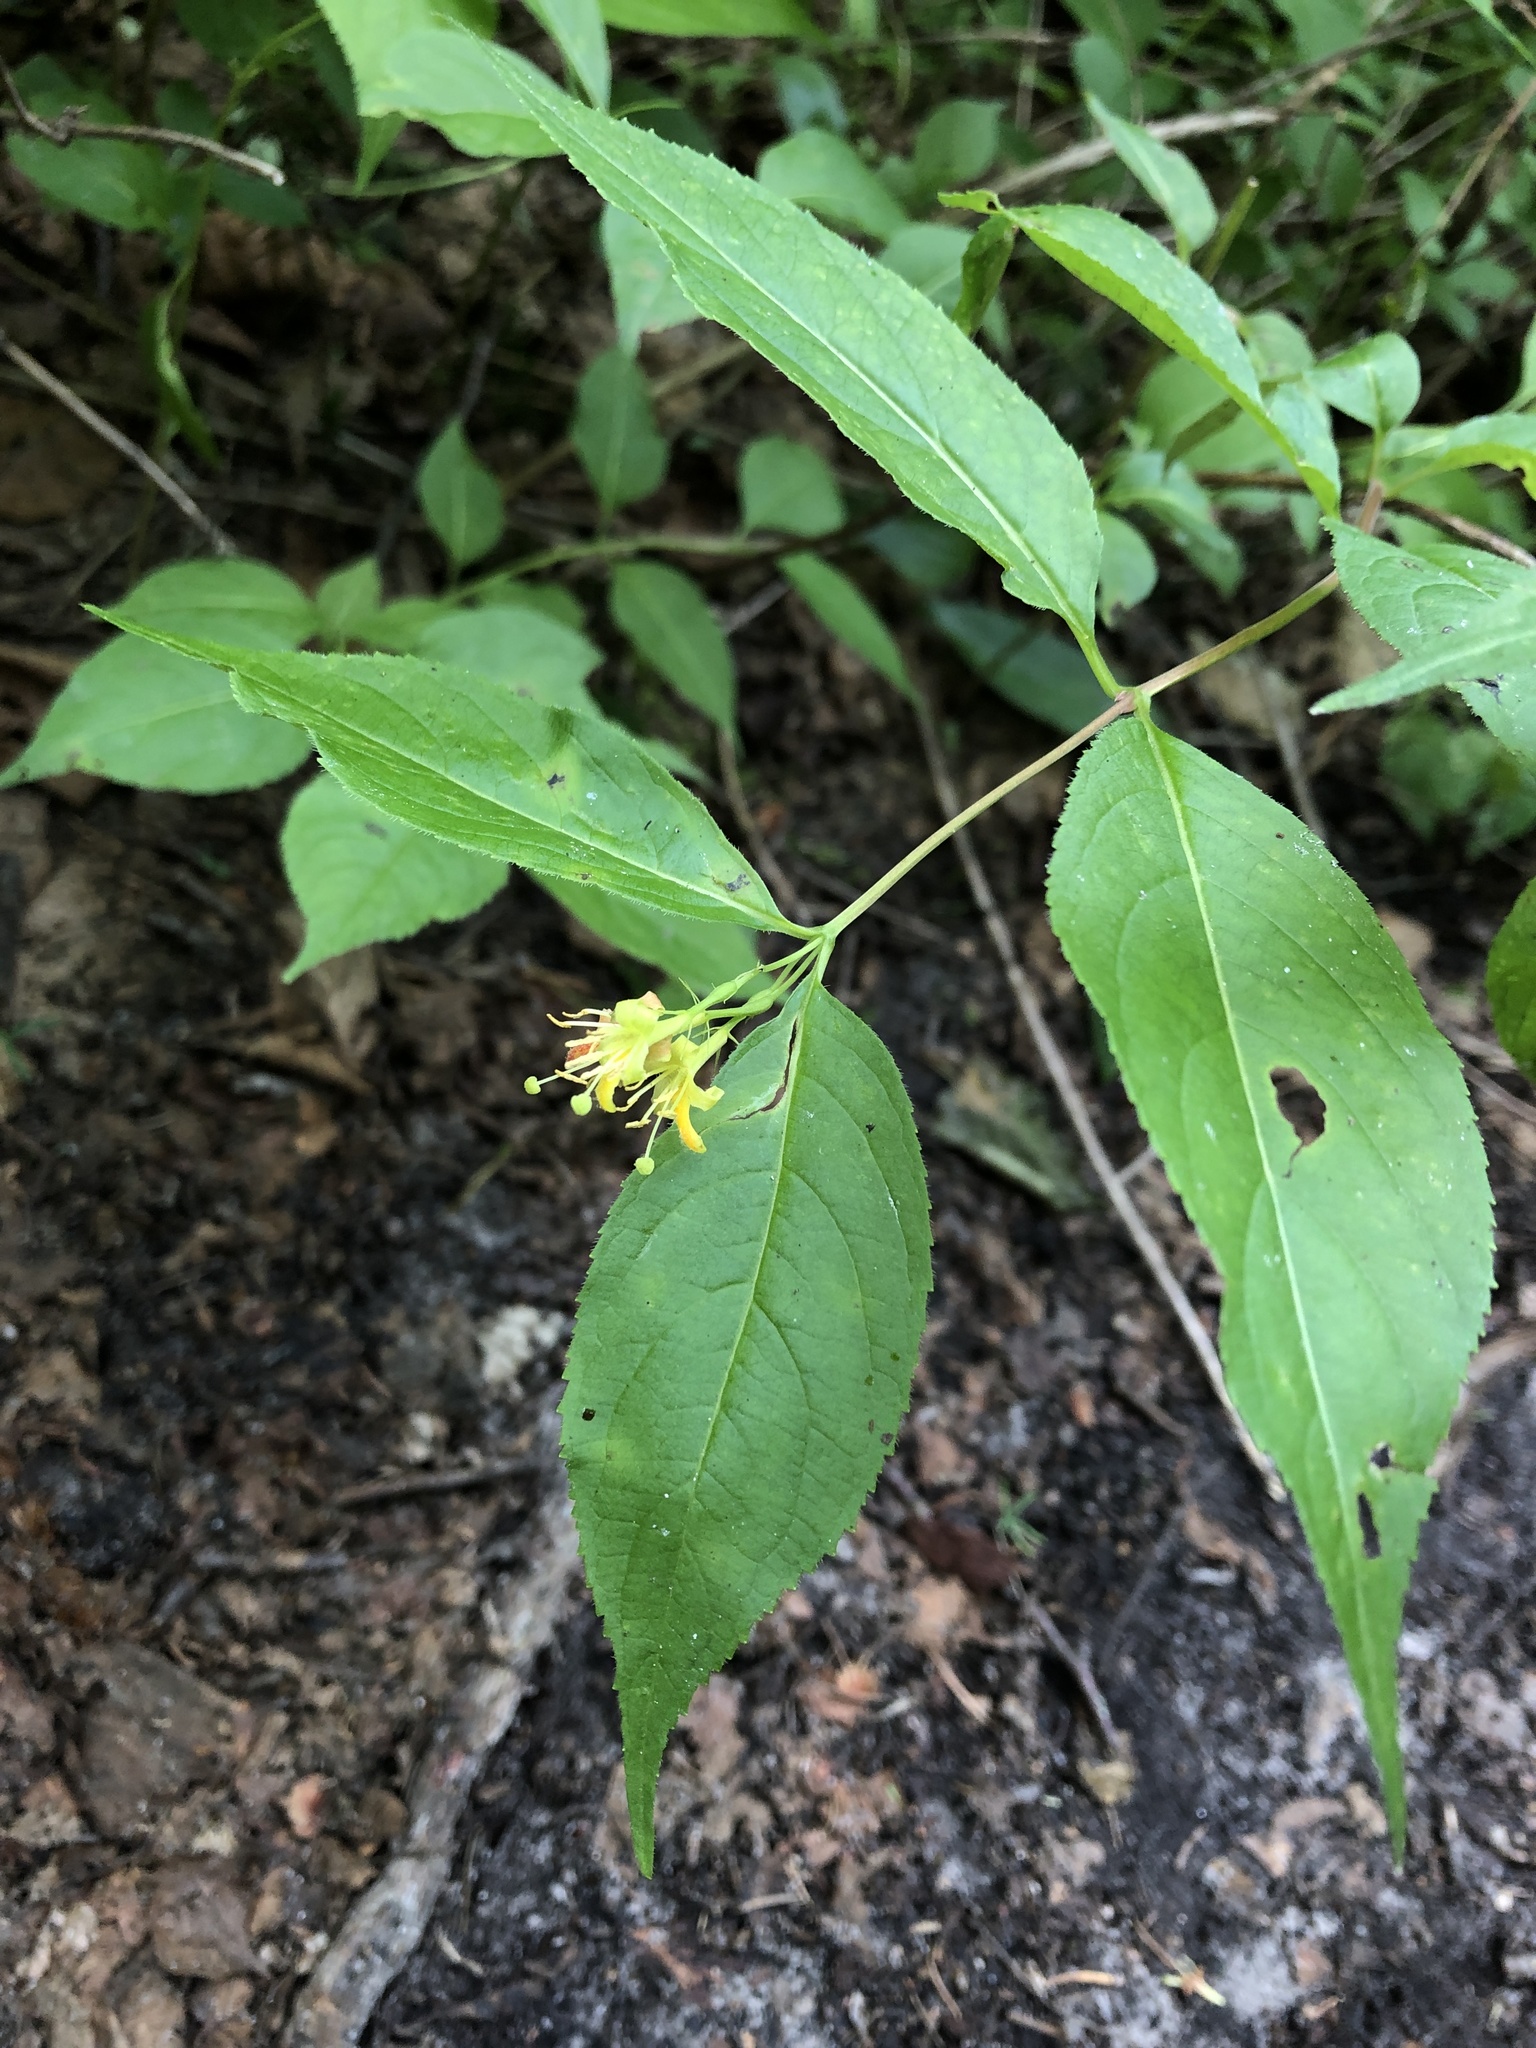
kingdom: Plantae
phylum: Tracheophyta
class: Magnoliopsida
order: Dipsacales
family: Caprifoliaceae
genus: Diervilla
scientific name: Diervilla lonicera
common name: Bush-honeysuckle
